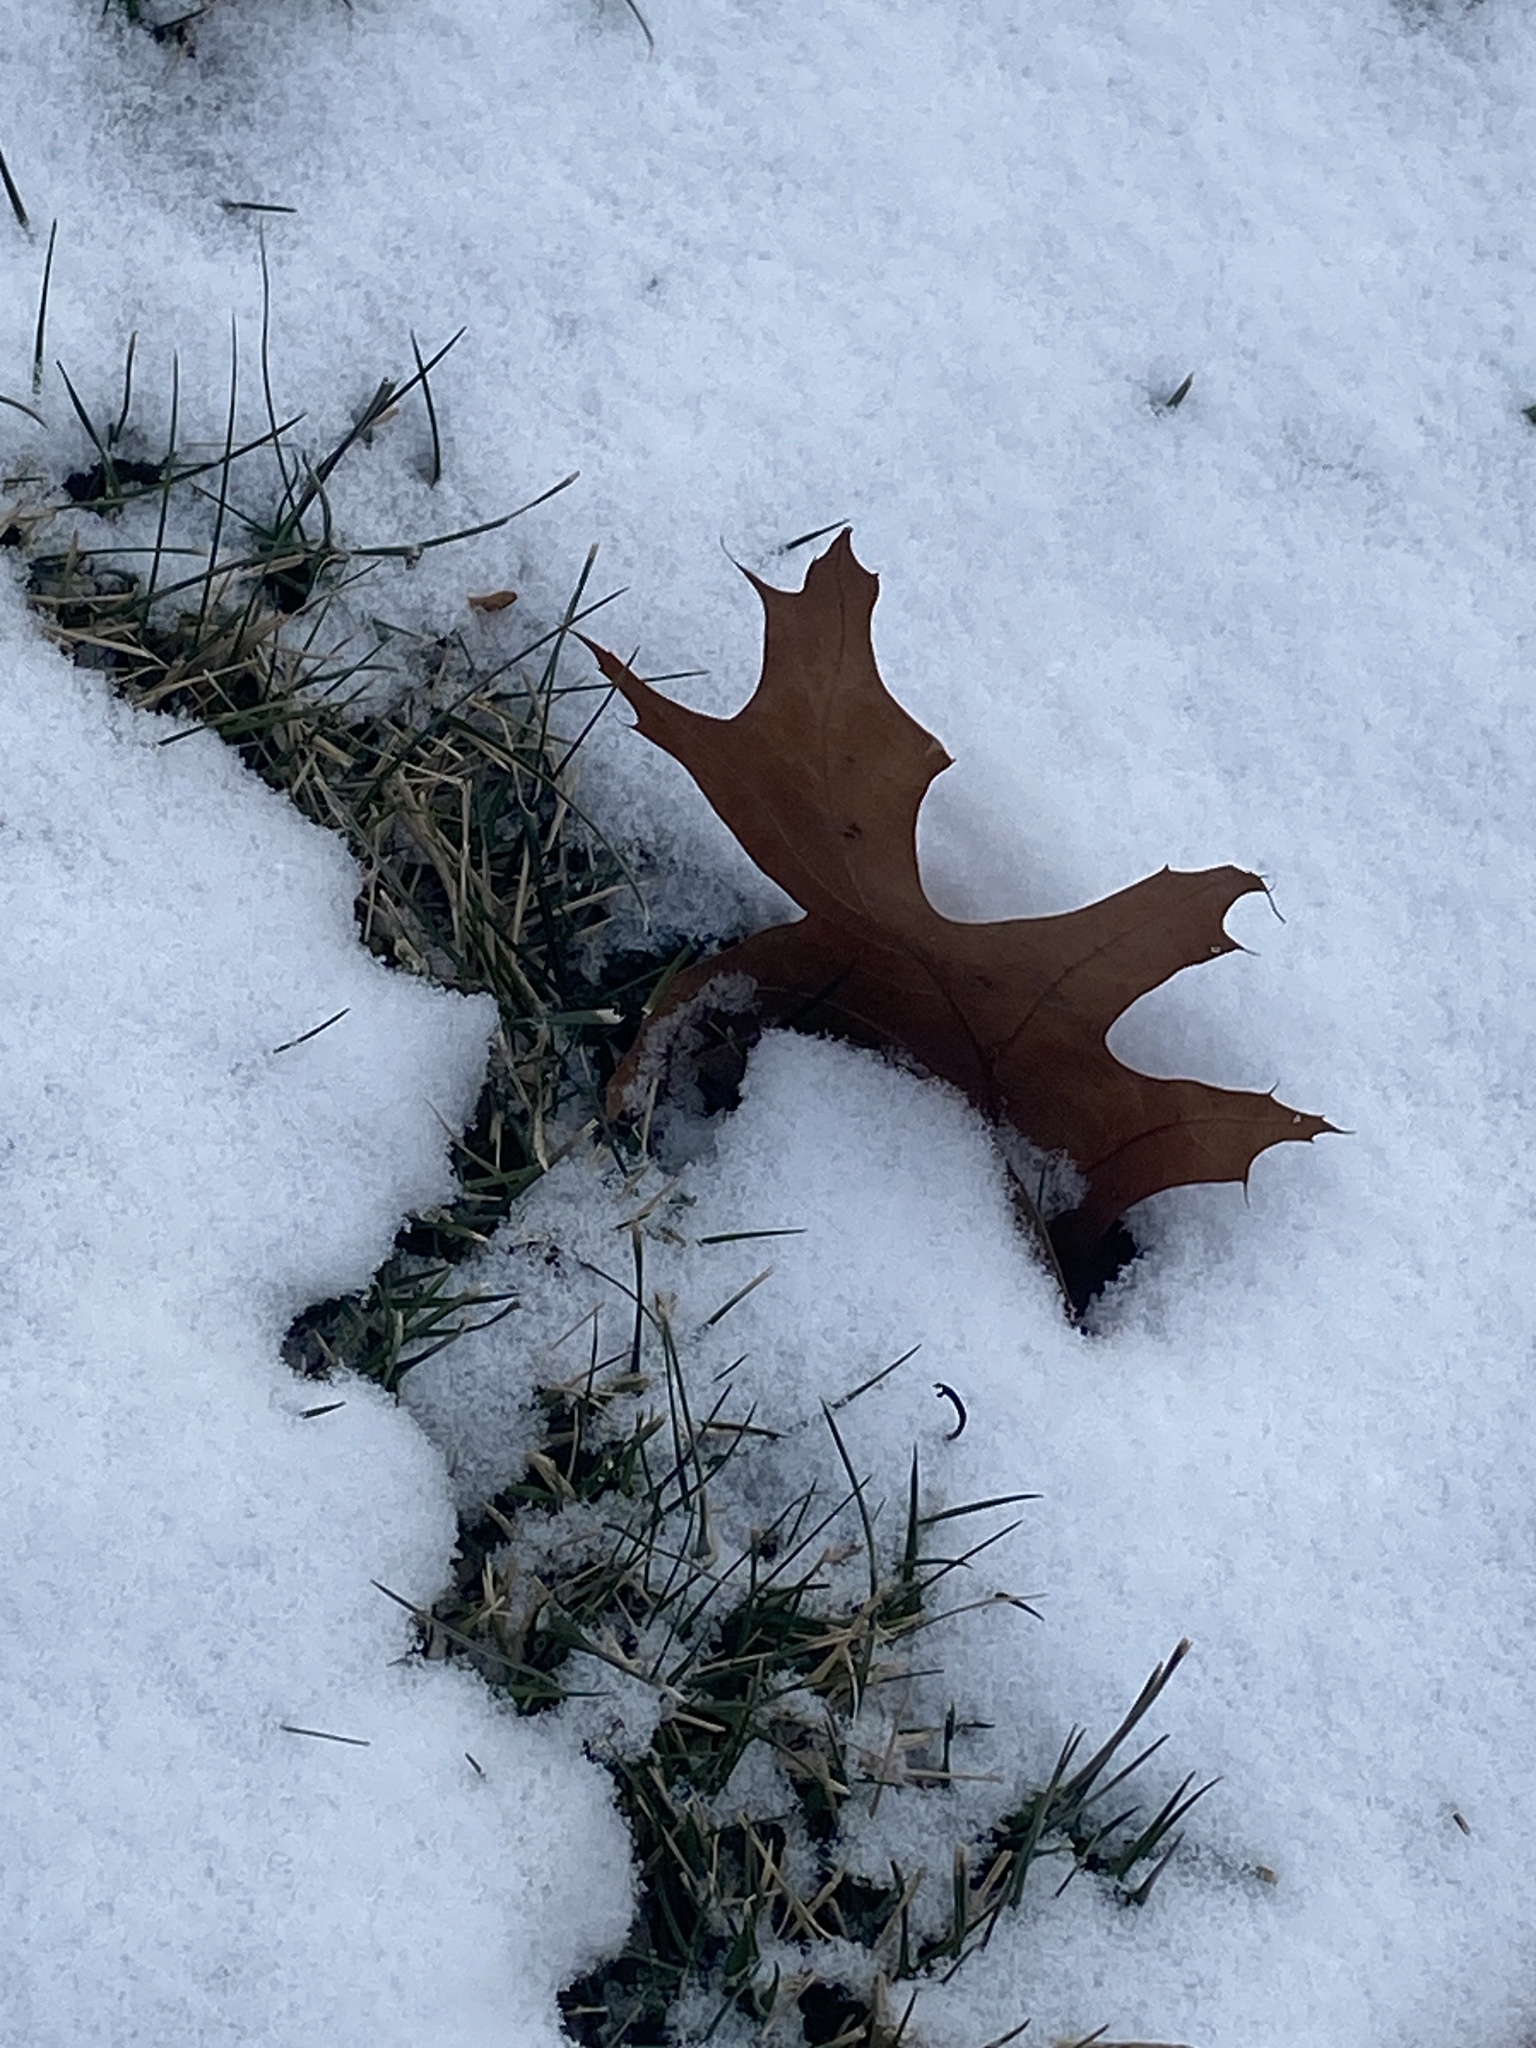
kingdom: Plantae
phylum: Tracheophyta
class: Magnoliopsida
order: Fagales
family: Fagaceae
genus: Quercus
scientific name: Quercus
